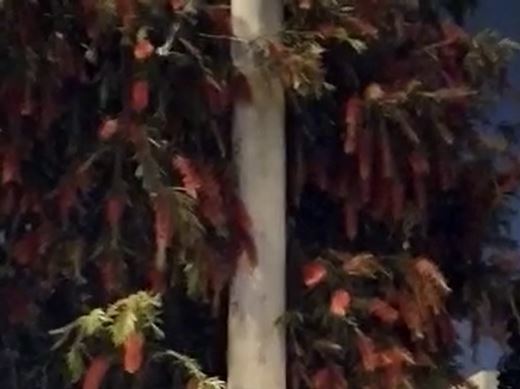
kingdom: Animalia
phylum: Chordata
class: Mammalia
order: Chiroptera
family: Phyllostomidae
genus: Glossophaga
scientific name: Glossophaga soricina
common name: Pallas's long-tongued bat
